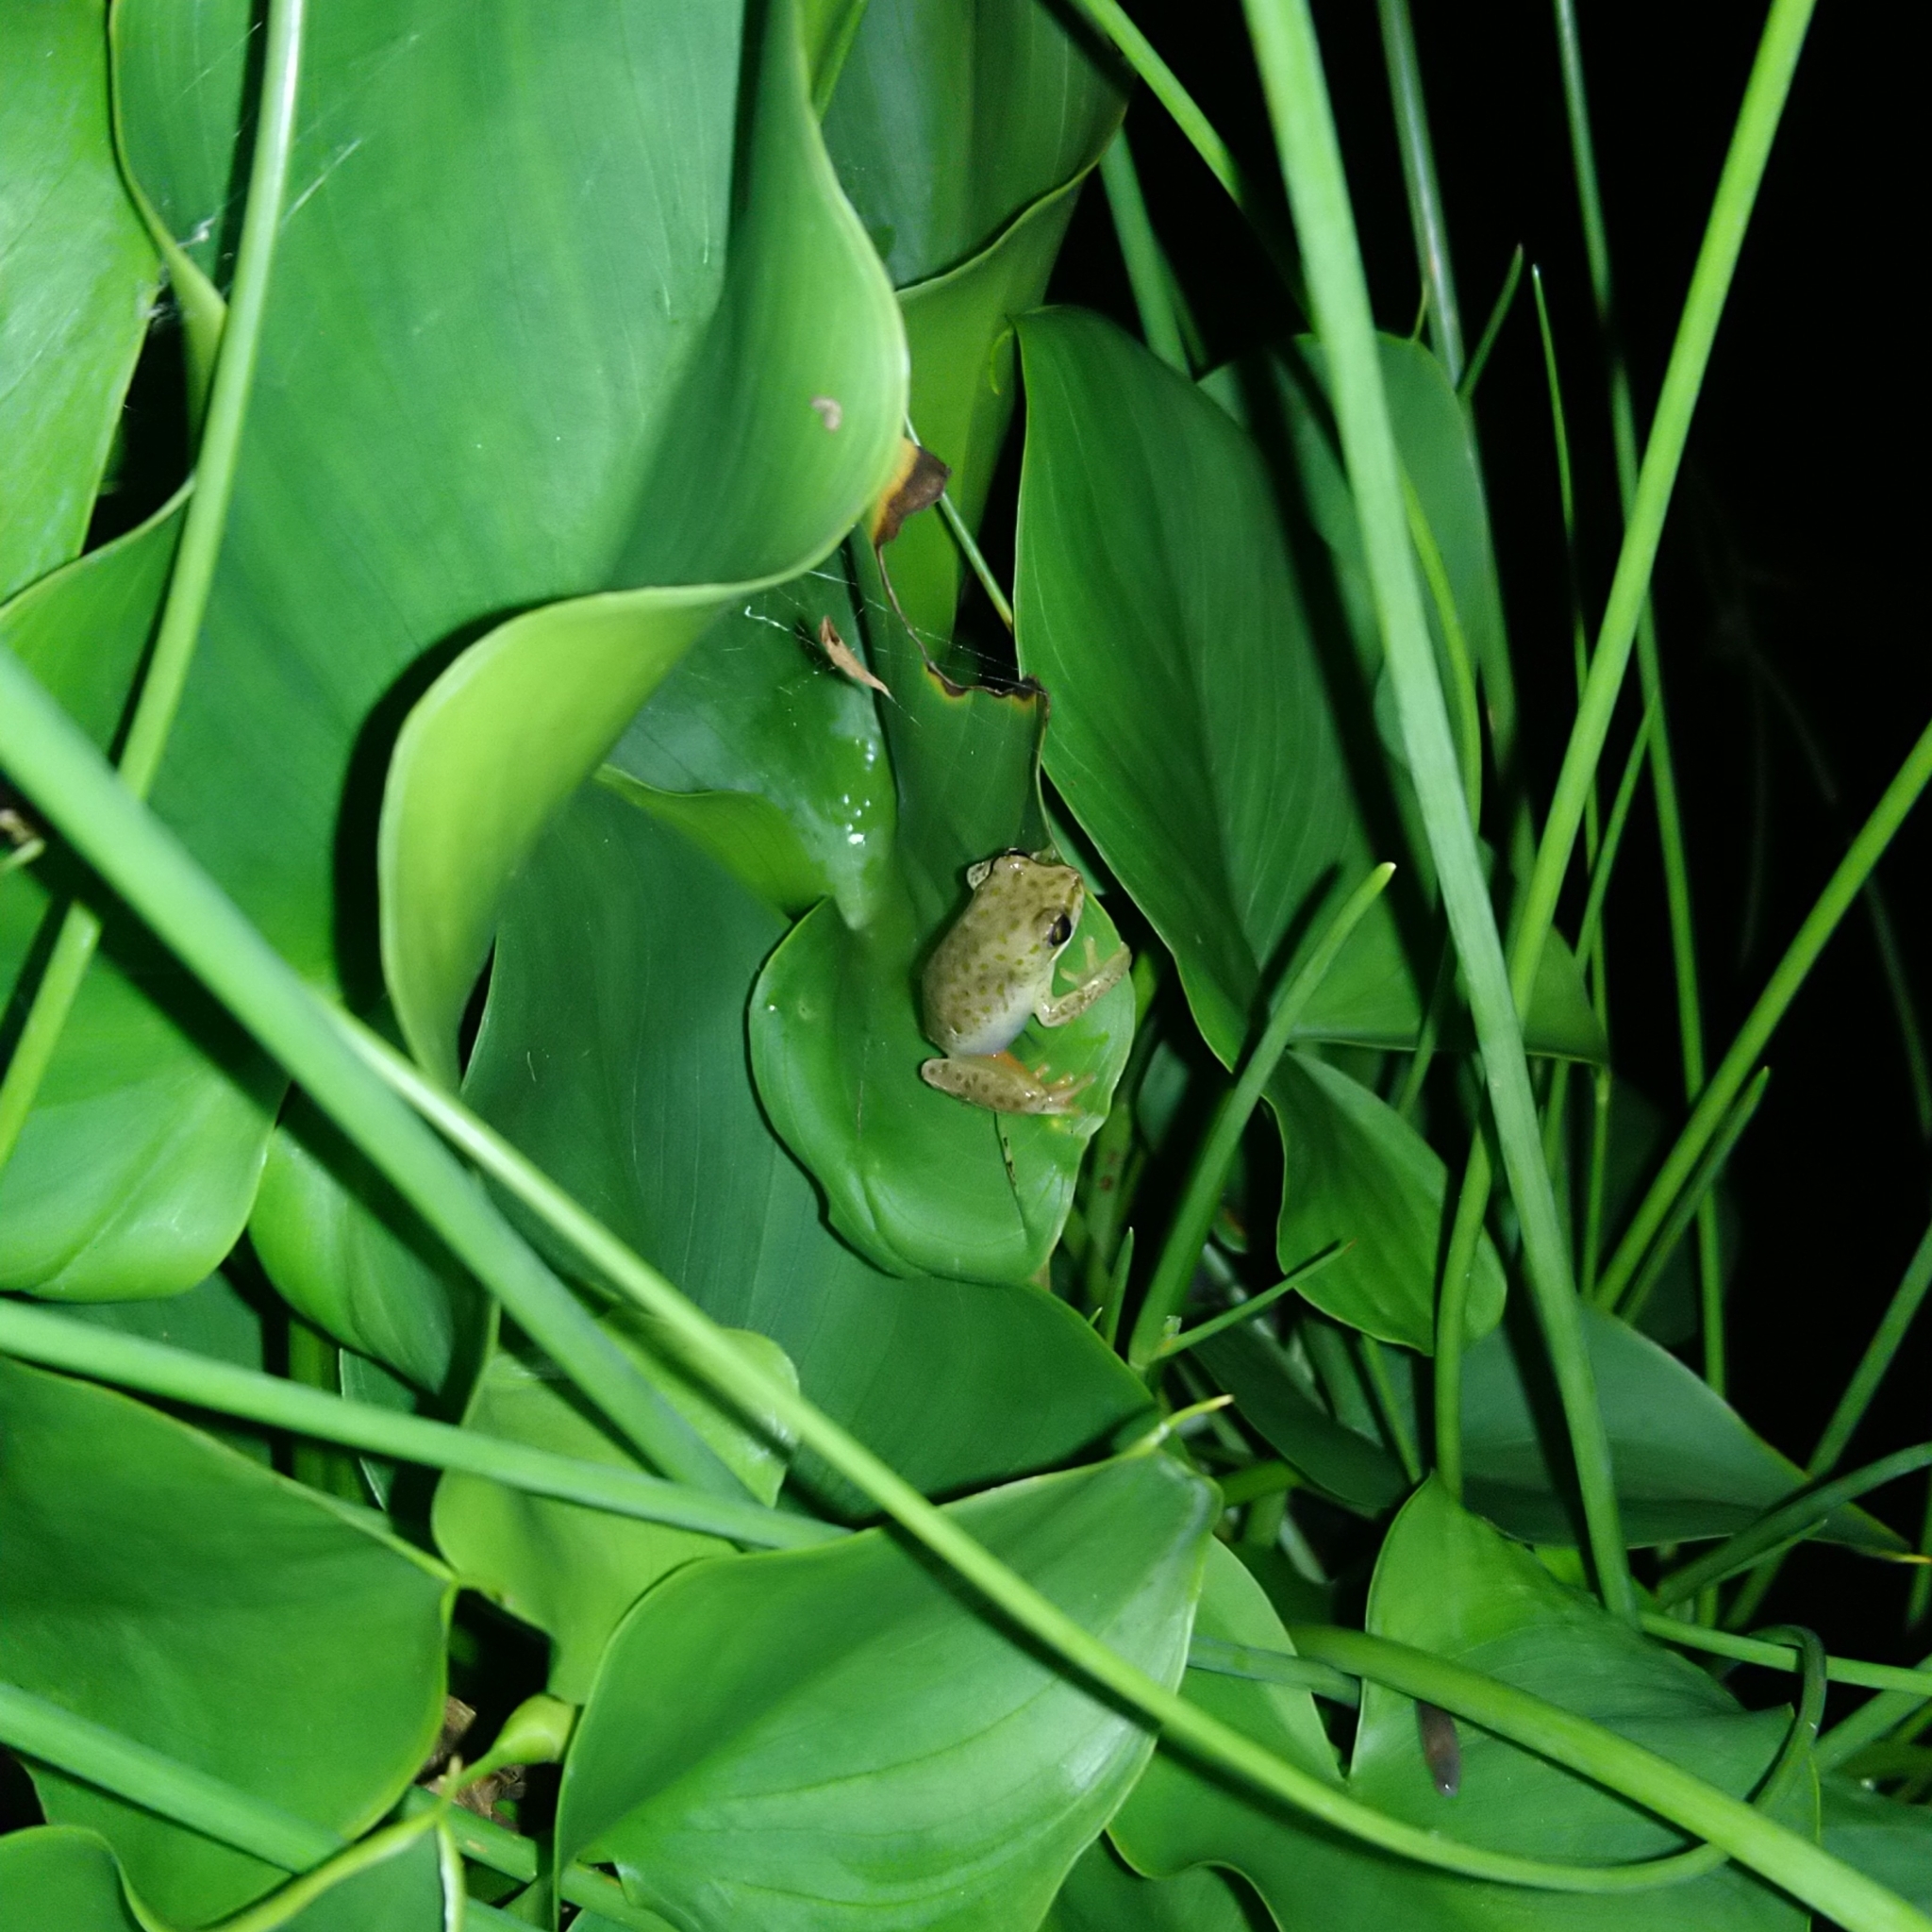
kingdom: Animalia
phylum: Chordata
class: Amphibia
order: Anura
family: Hyperoliidae
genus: Hyperolius
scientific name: Hyperolius marmoratus
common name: Painted reed frog
